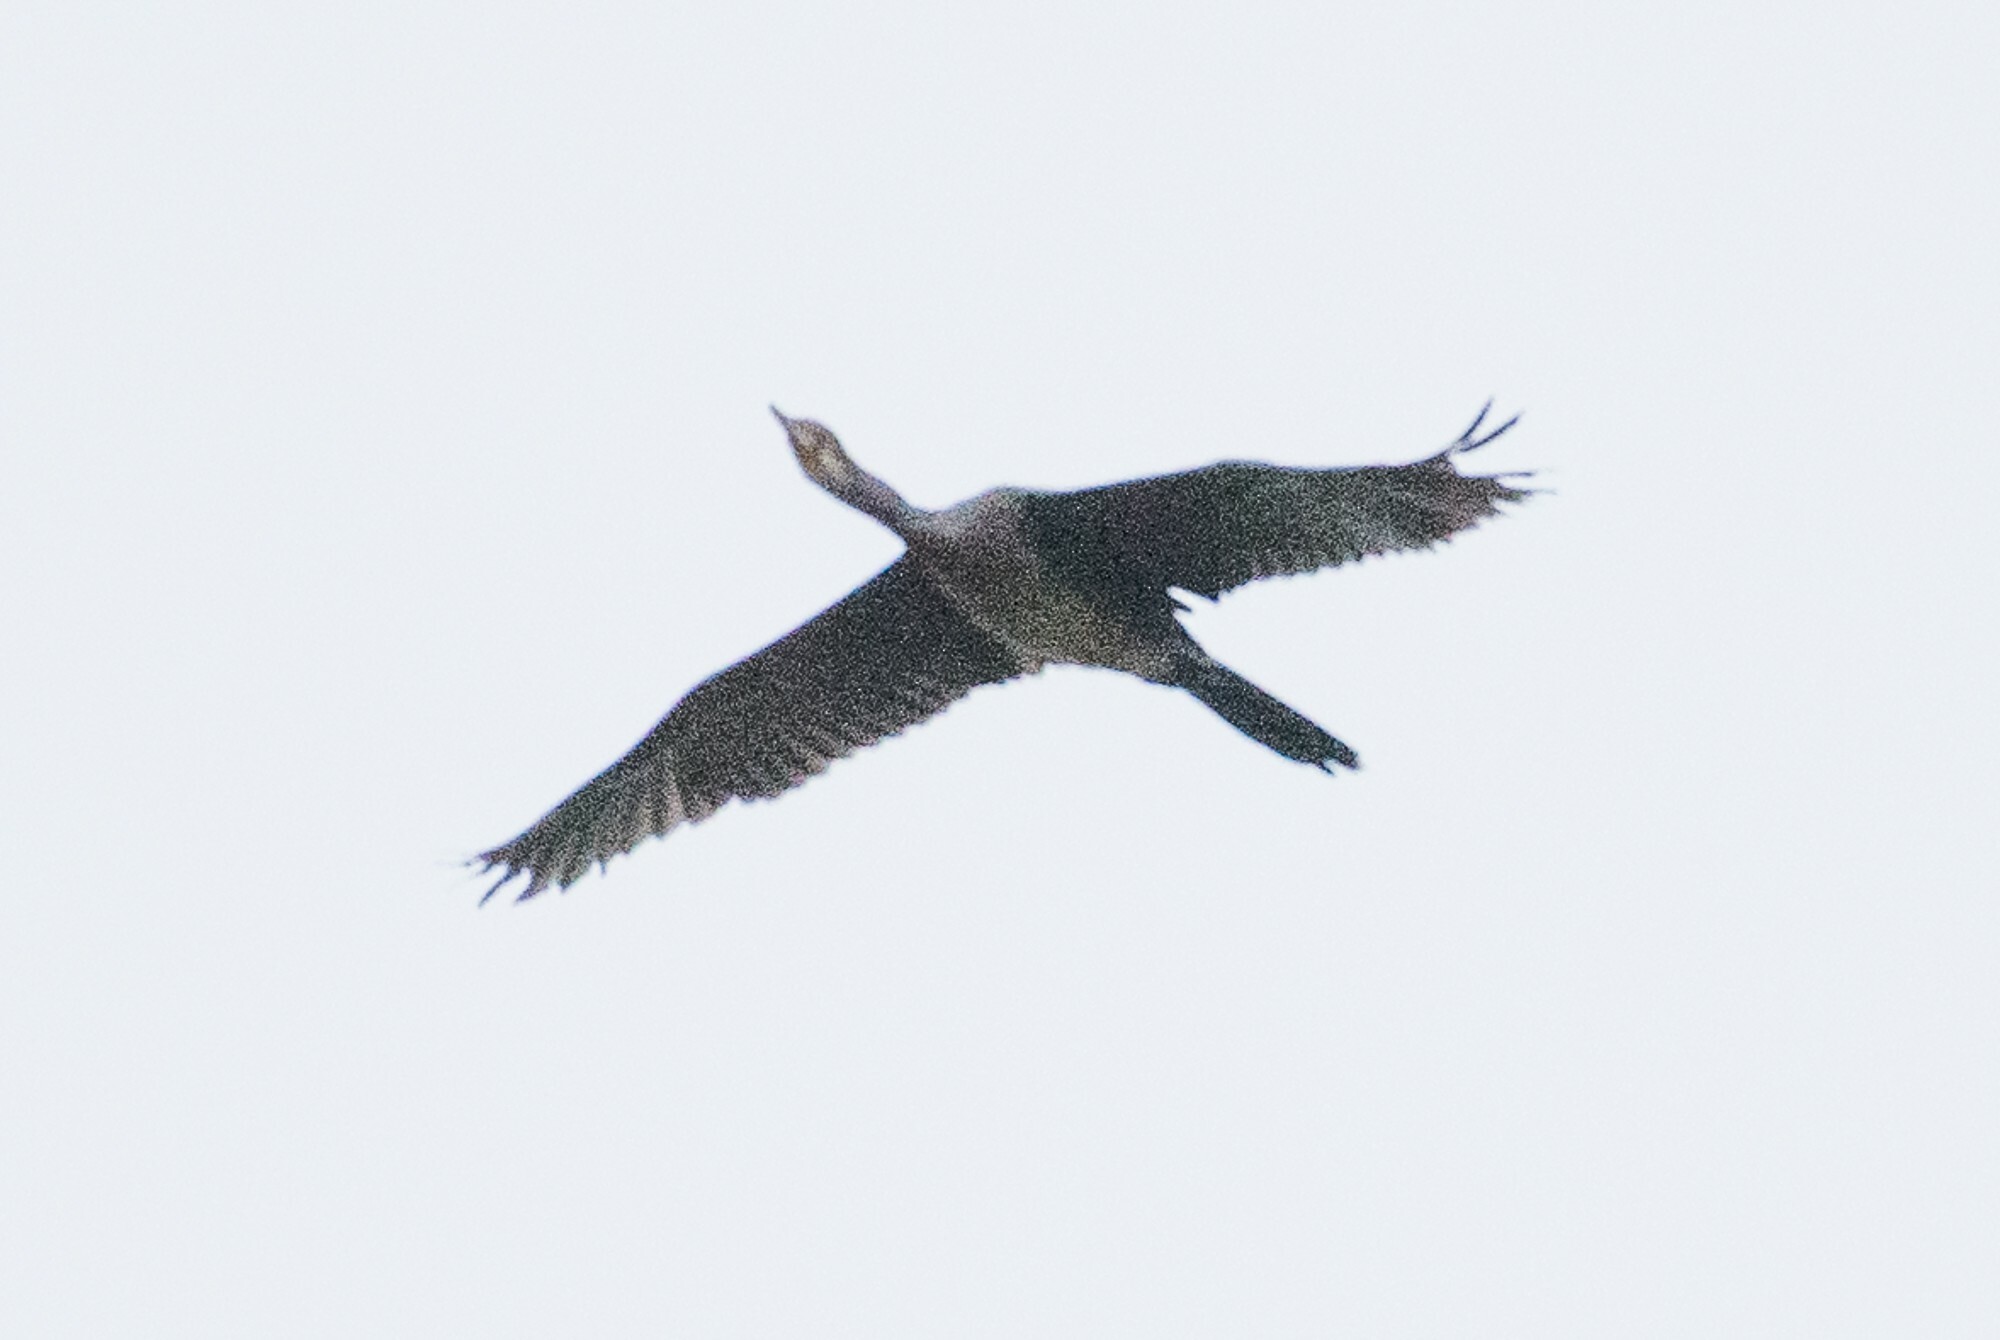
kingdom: Animalia
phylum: Chordata
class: Aves
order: Suliformes
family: Phalacrocoracidae
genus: Microcarbo
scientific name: Microcarbo africanus
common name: Long-tailed cormorant
